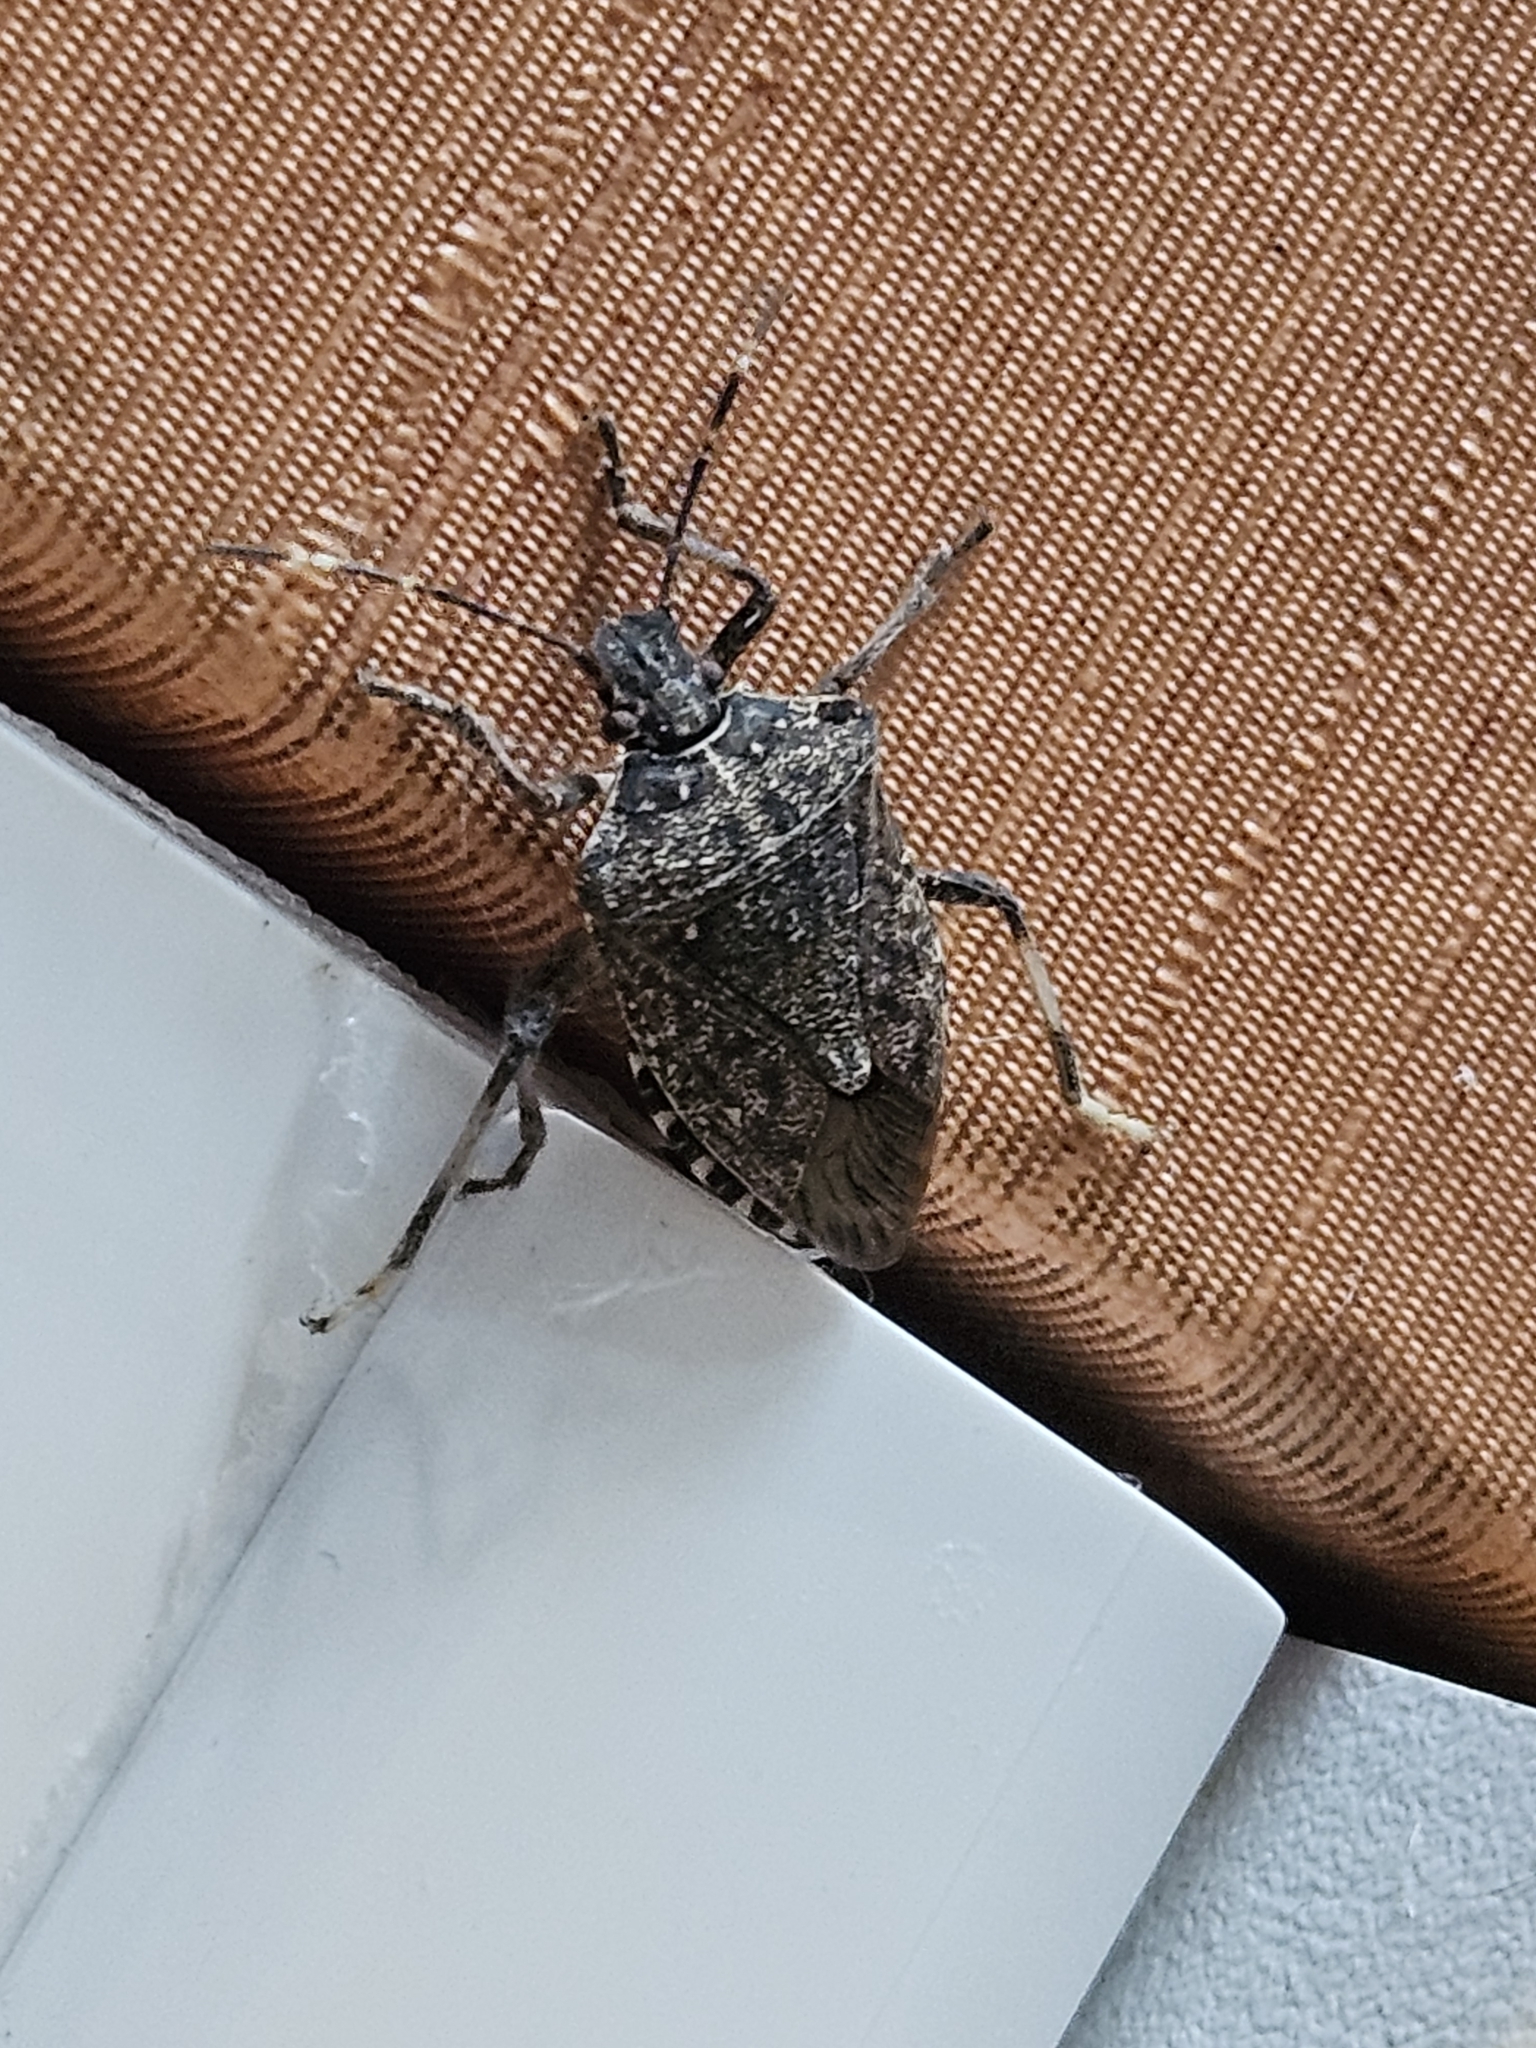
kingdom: Animalia
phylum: Arthropoda
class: Insecta
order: Hemiptera
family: Pentatomidae
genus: Halyomorpha
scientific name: Halyomorpha halys
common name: Brown marmorated stink bug
